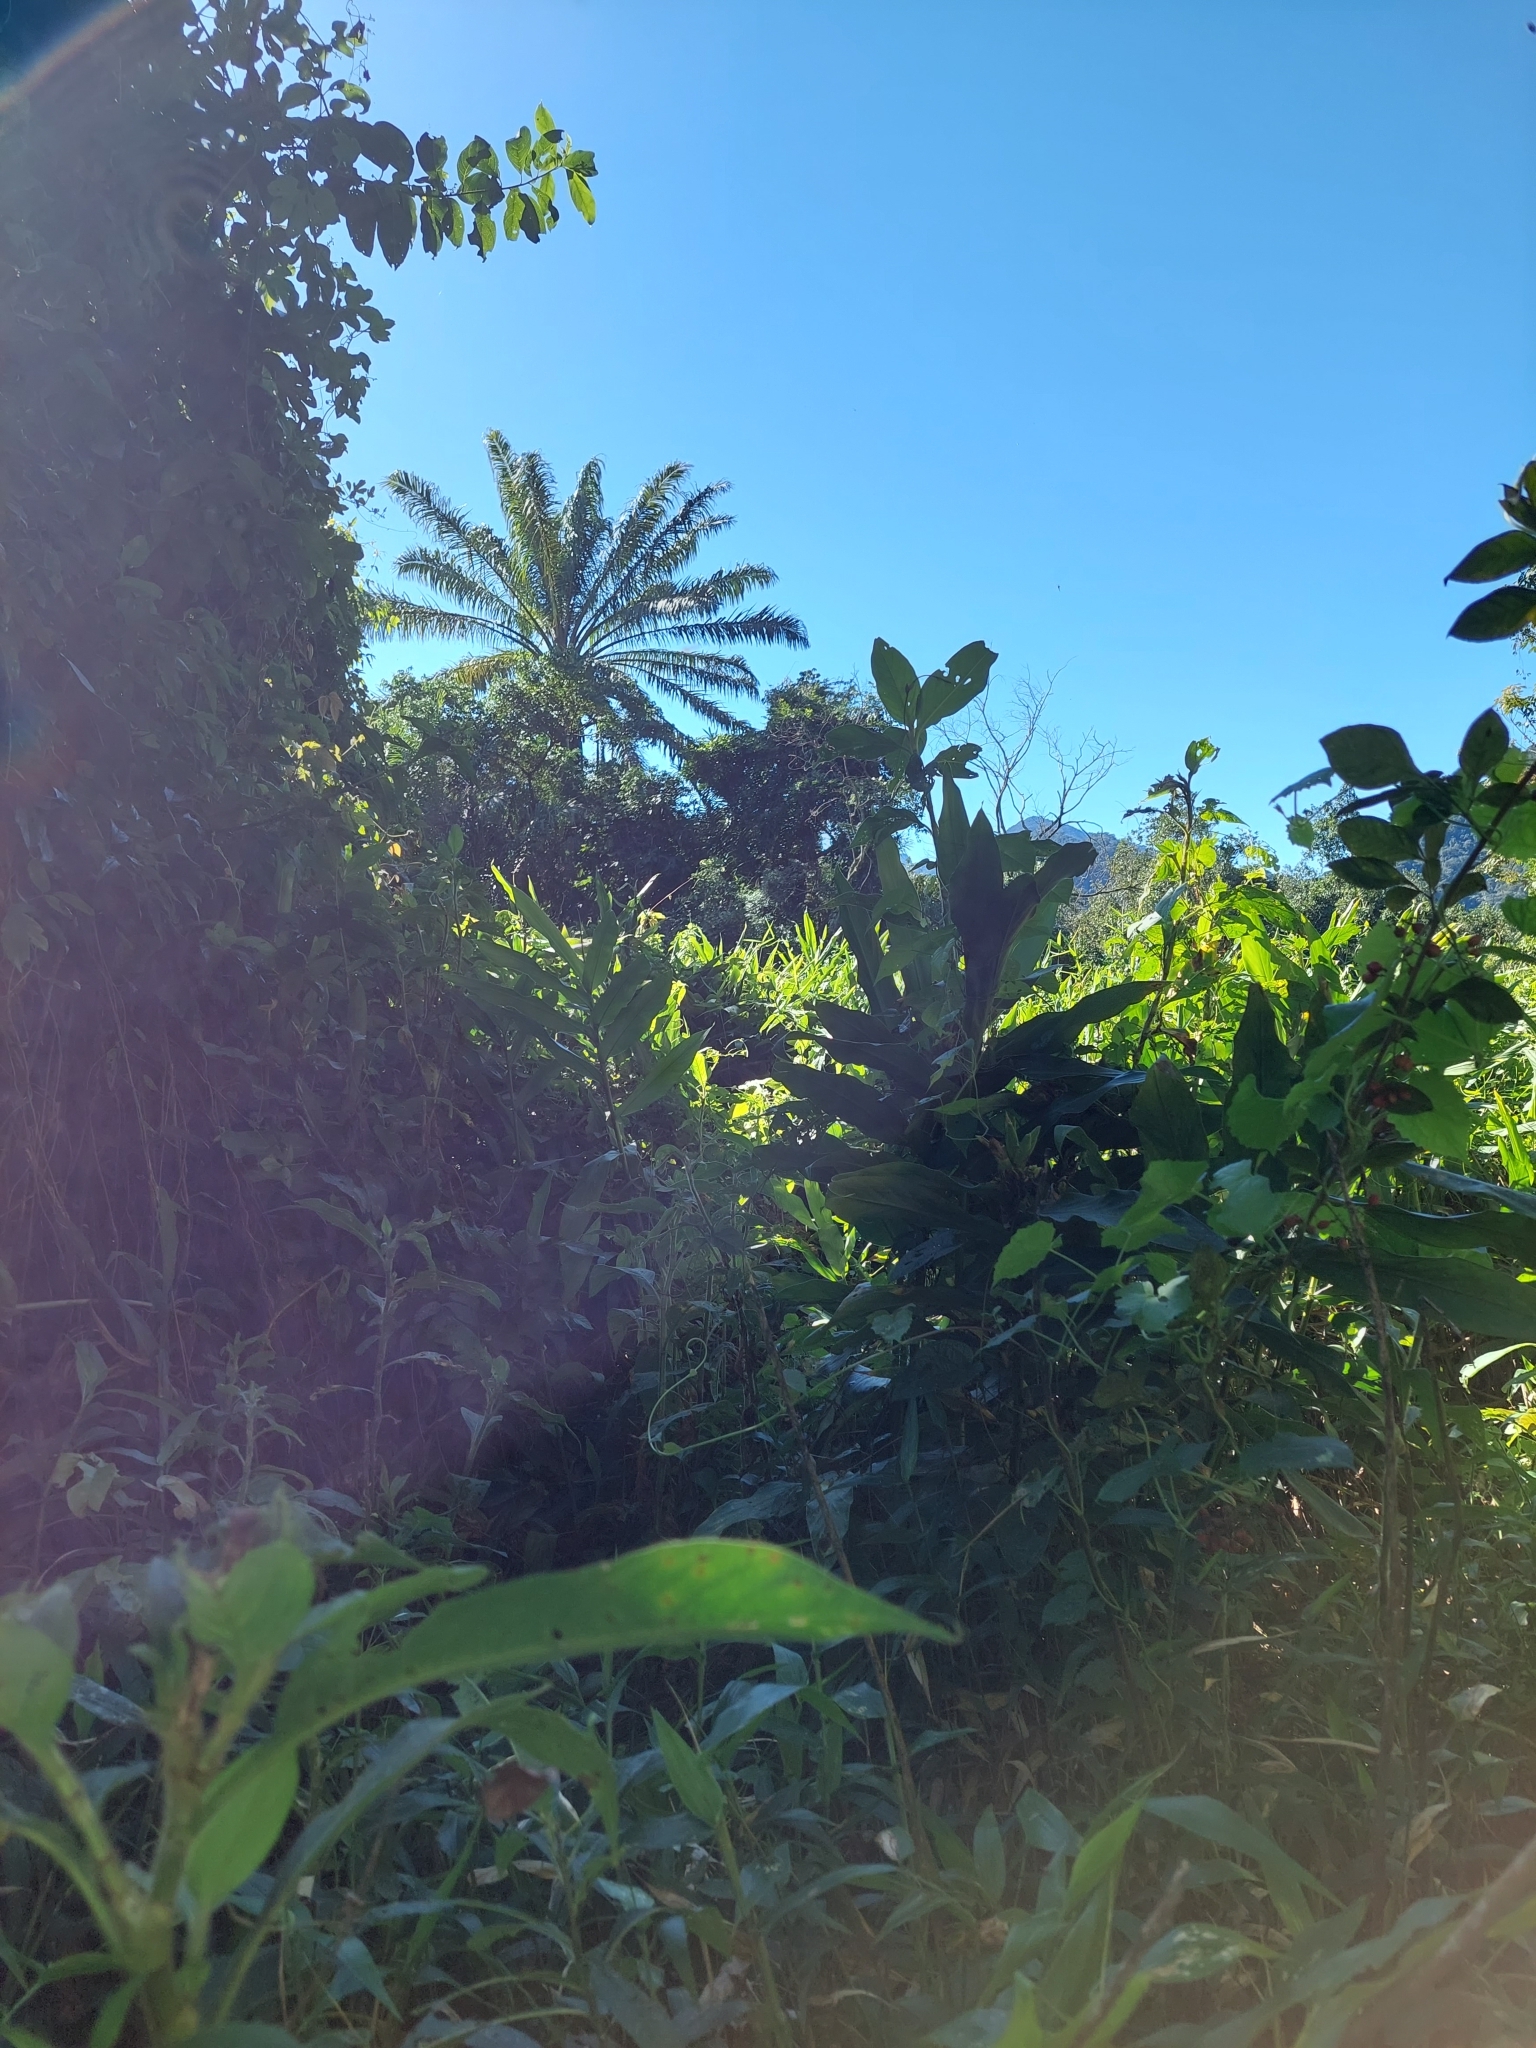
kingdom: Plantae
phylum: Tracheophyta
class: Liliopsida
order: Zingiberales
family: Zingiberaceae
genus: Hedychium
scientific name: Hedychium coronarium
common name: White garland-lily
